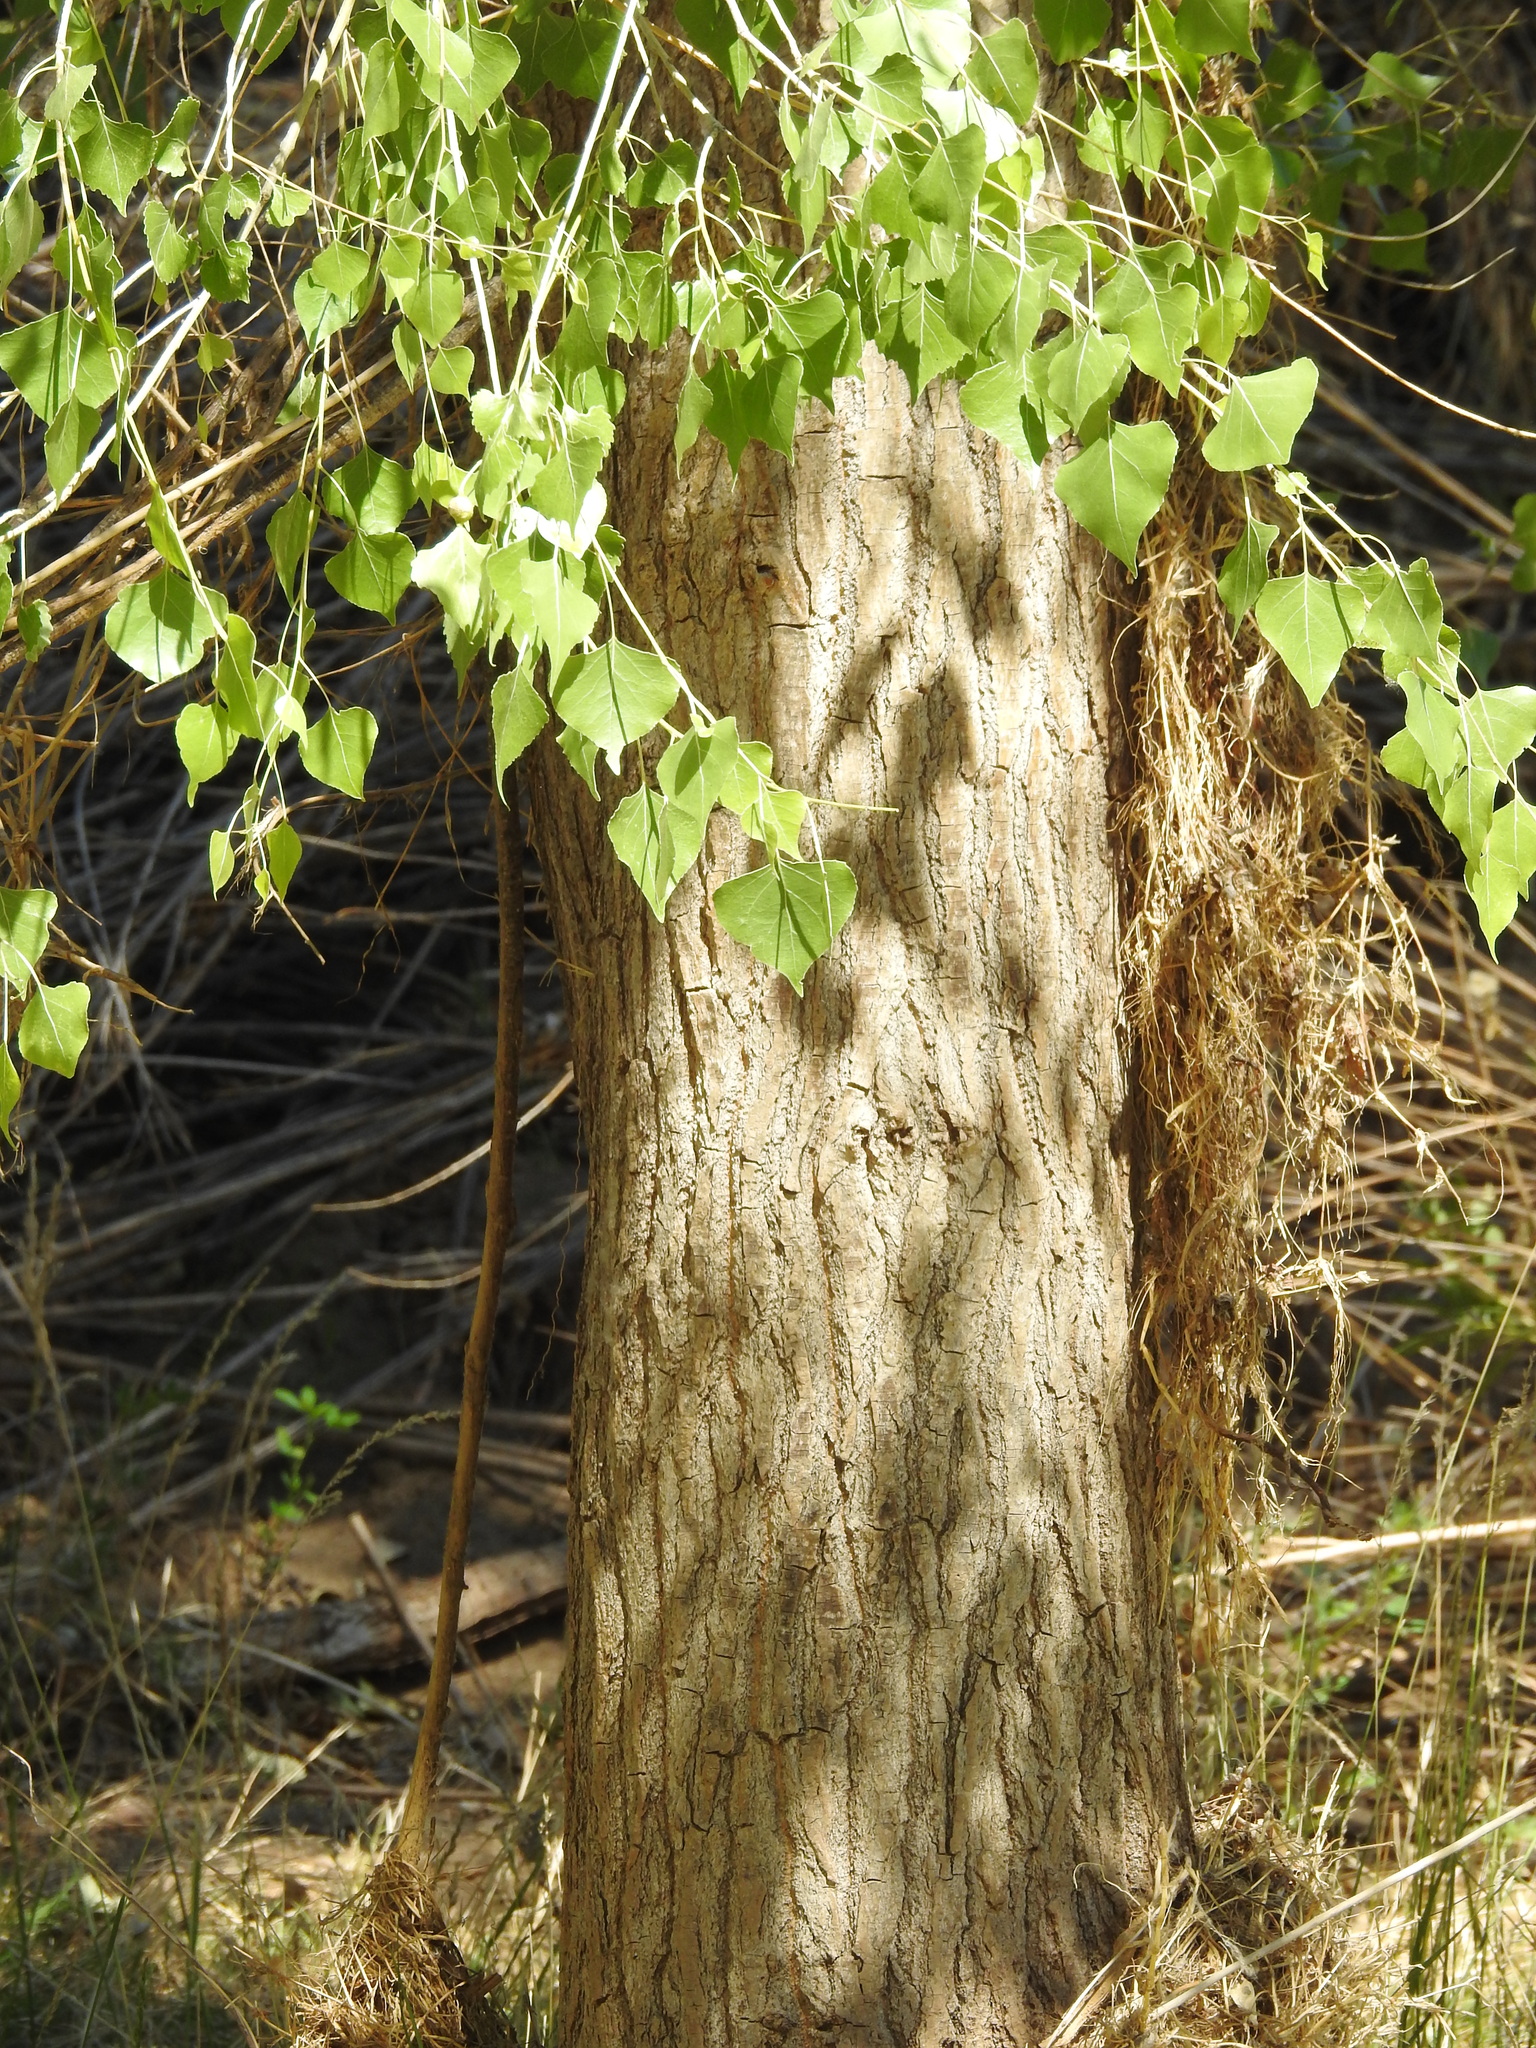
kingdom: Plantae
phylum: Tracheophyta
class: Magnoliopsida
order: Malpighiales
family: Salicaceae
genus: Populus
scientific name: Populus fremontii
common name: Fremont's cottonwood
